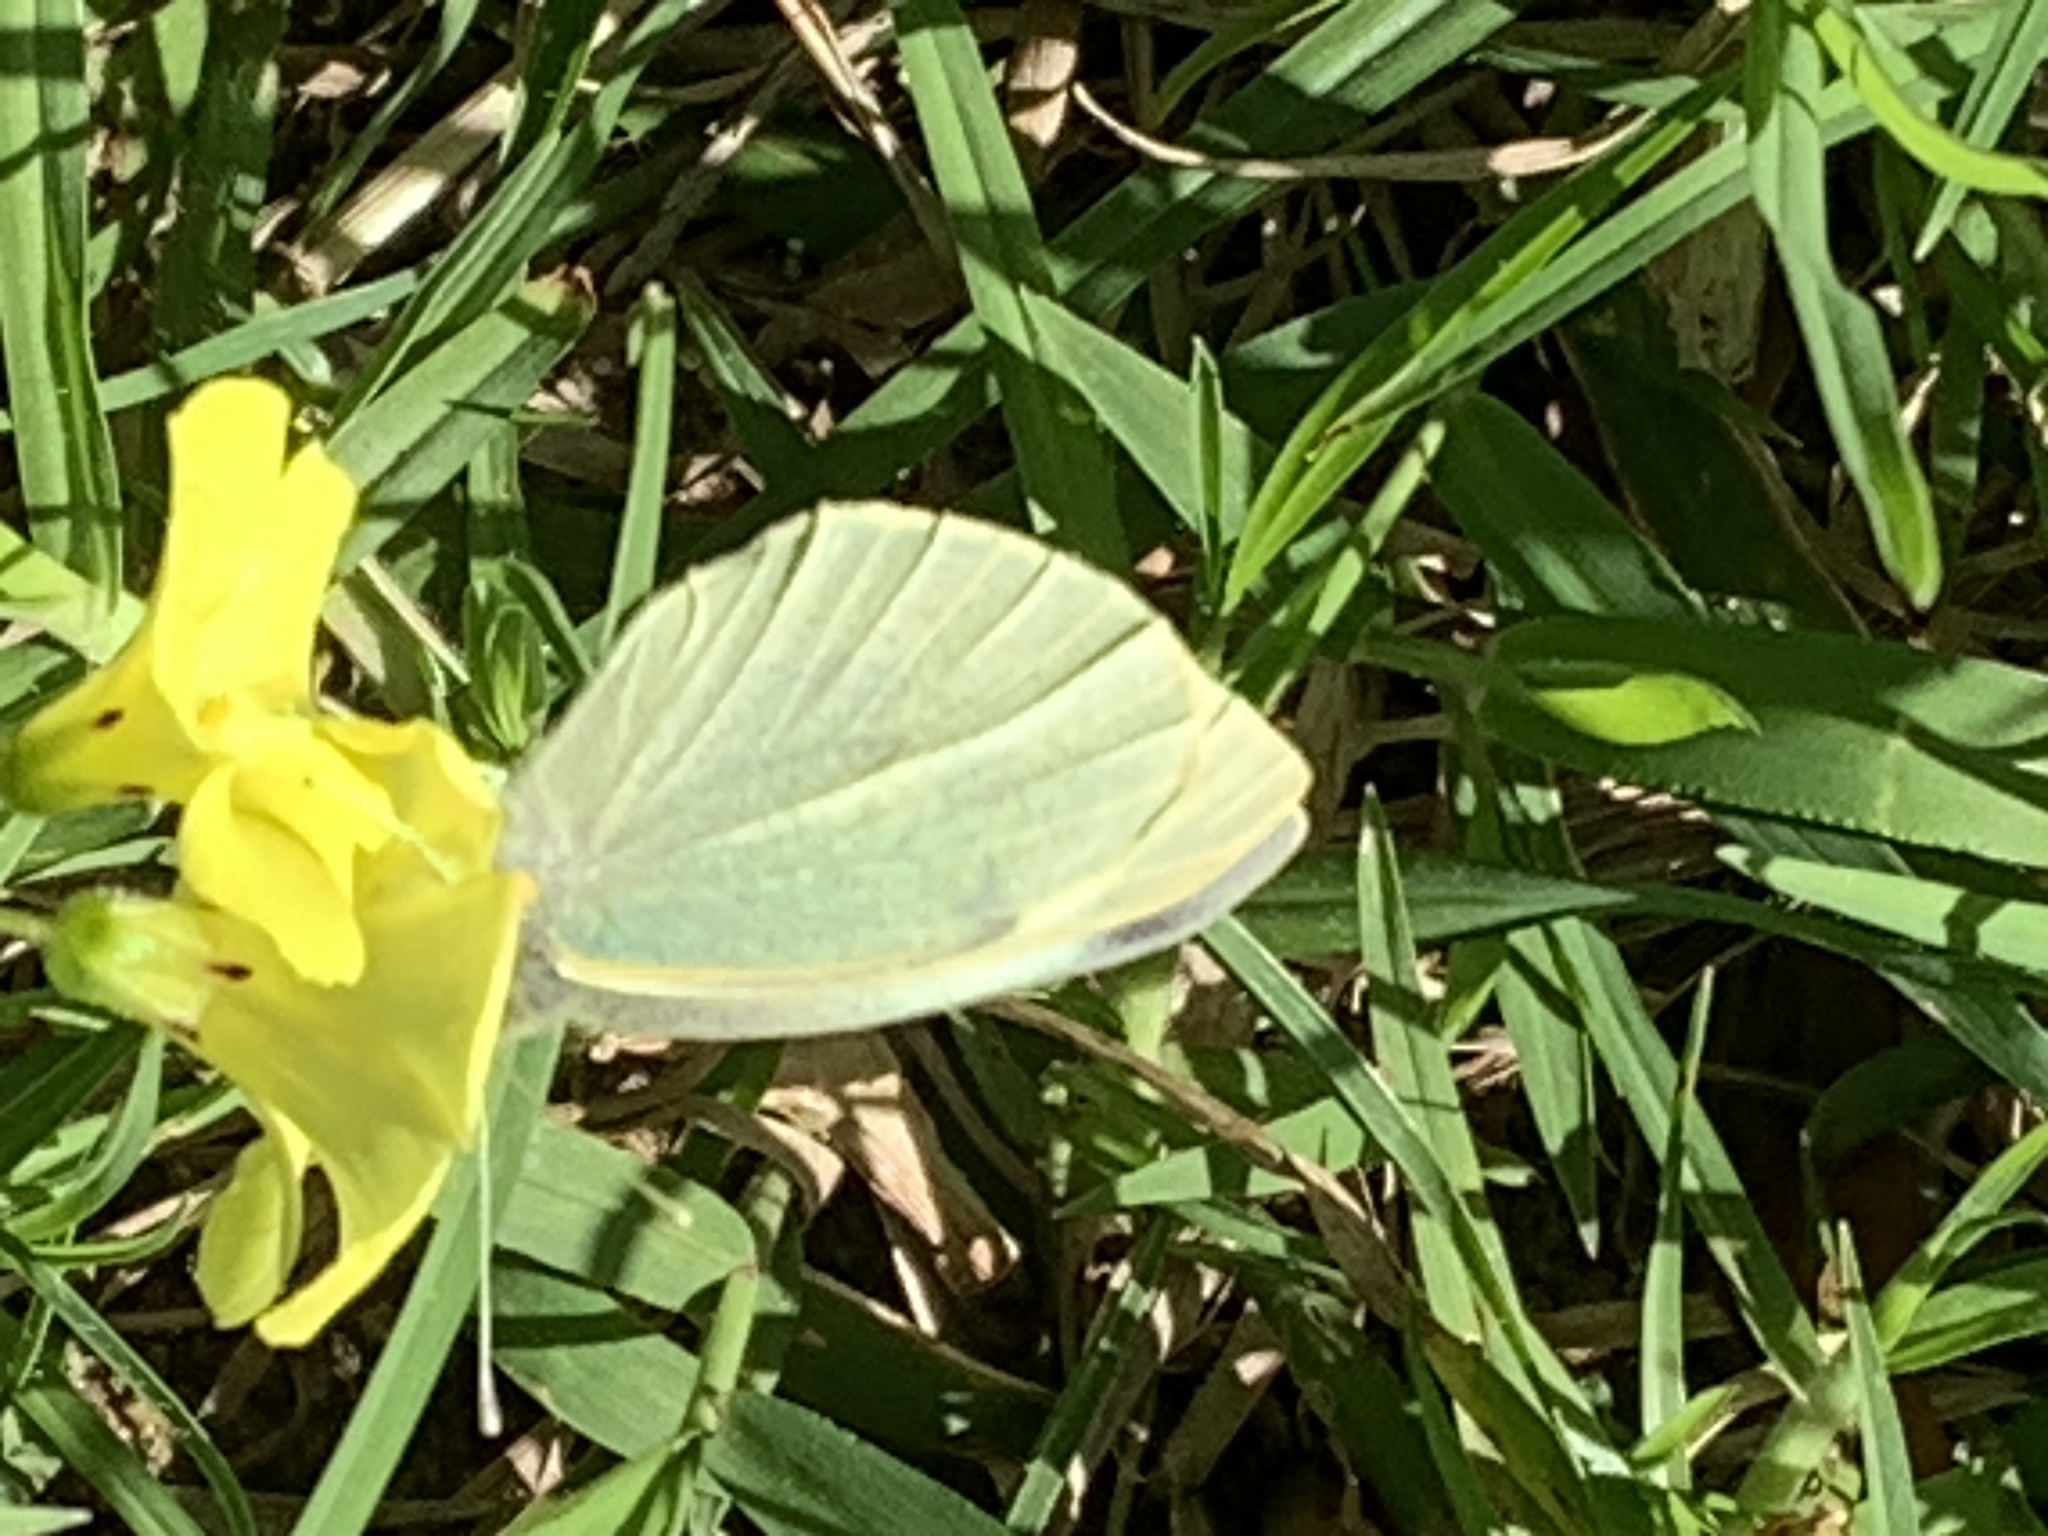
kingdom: Animalia
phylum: Arthropoda
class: Insecta
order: Lepidoptera
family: Pieridae
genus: Pieris
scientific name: Pieris brassicae
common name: Large white
